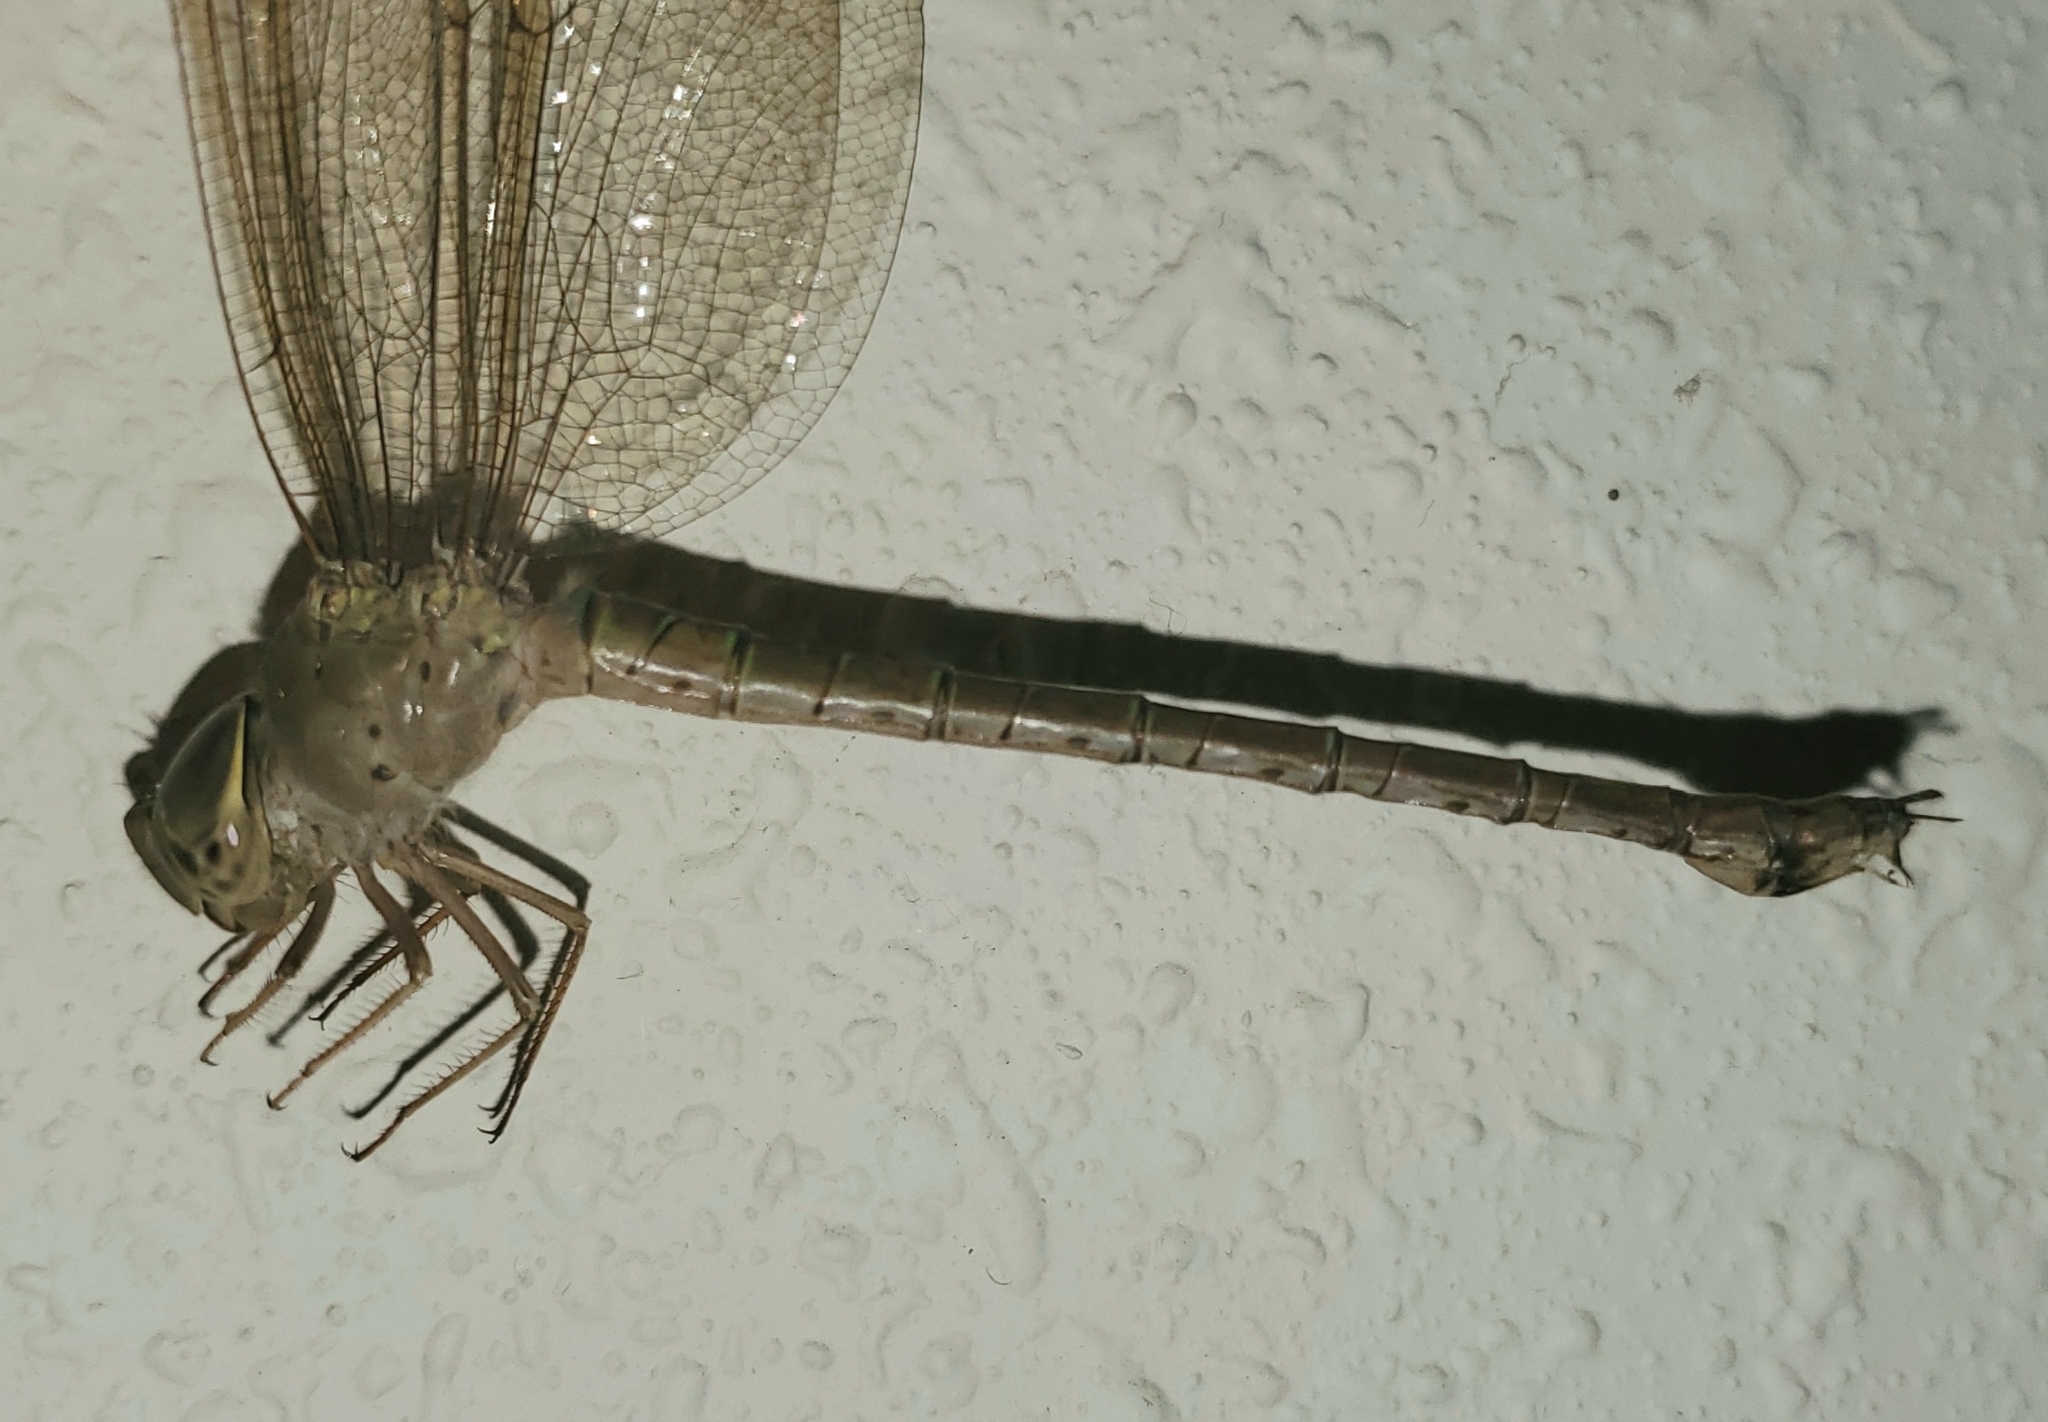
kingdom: Animalia
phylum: Arthropoda
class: Insecta
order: Odonata
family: Aeshnidae
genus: Gynacantha
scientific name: Gynacantha nervosa
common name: Twilight darner
